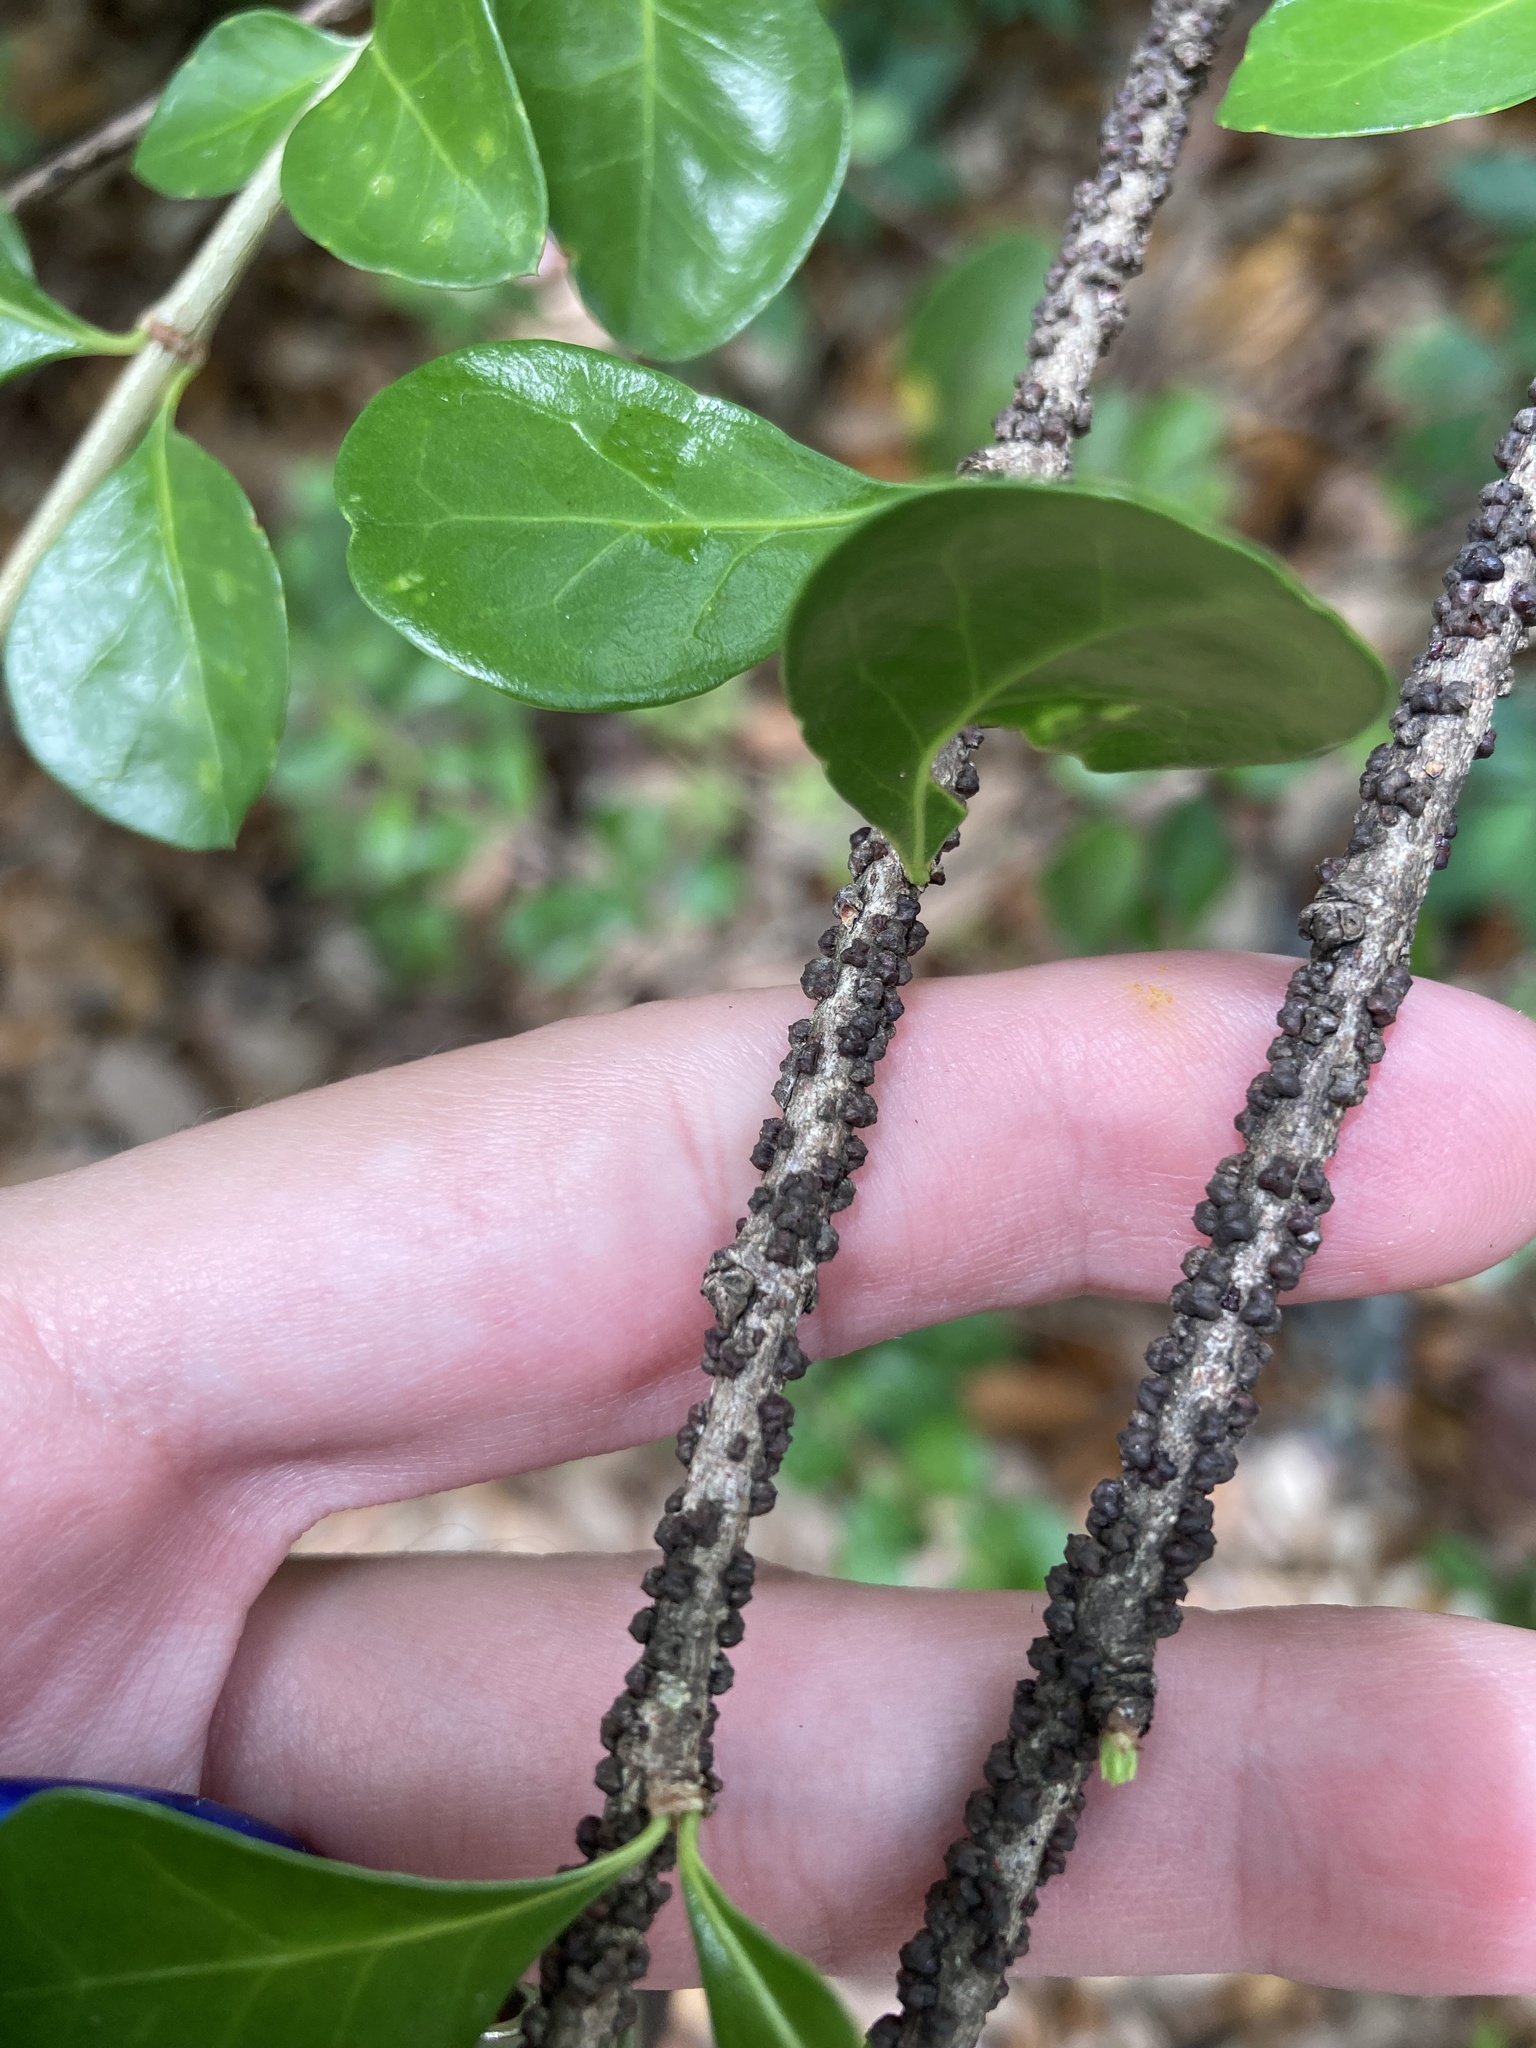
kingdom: Animalia
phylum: Arthropoda
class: Insecta
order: Hemiptera
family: Kerriidae
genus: Paratachardina
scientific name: Paratachardina pseudolobata
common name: Lobate lac scale
